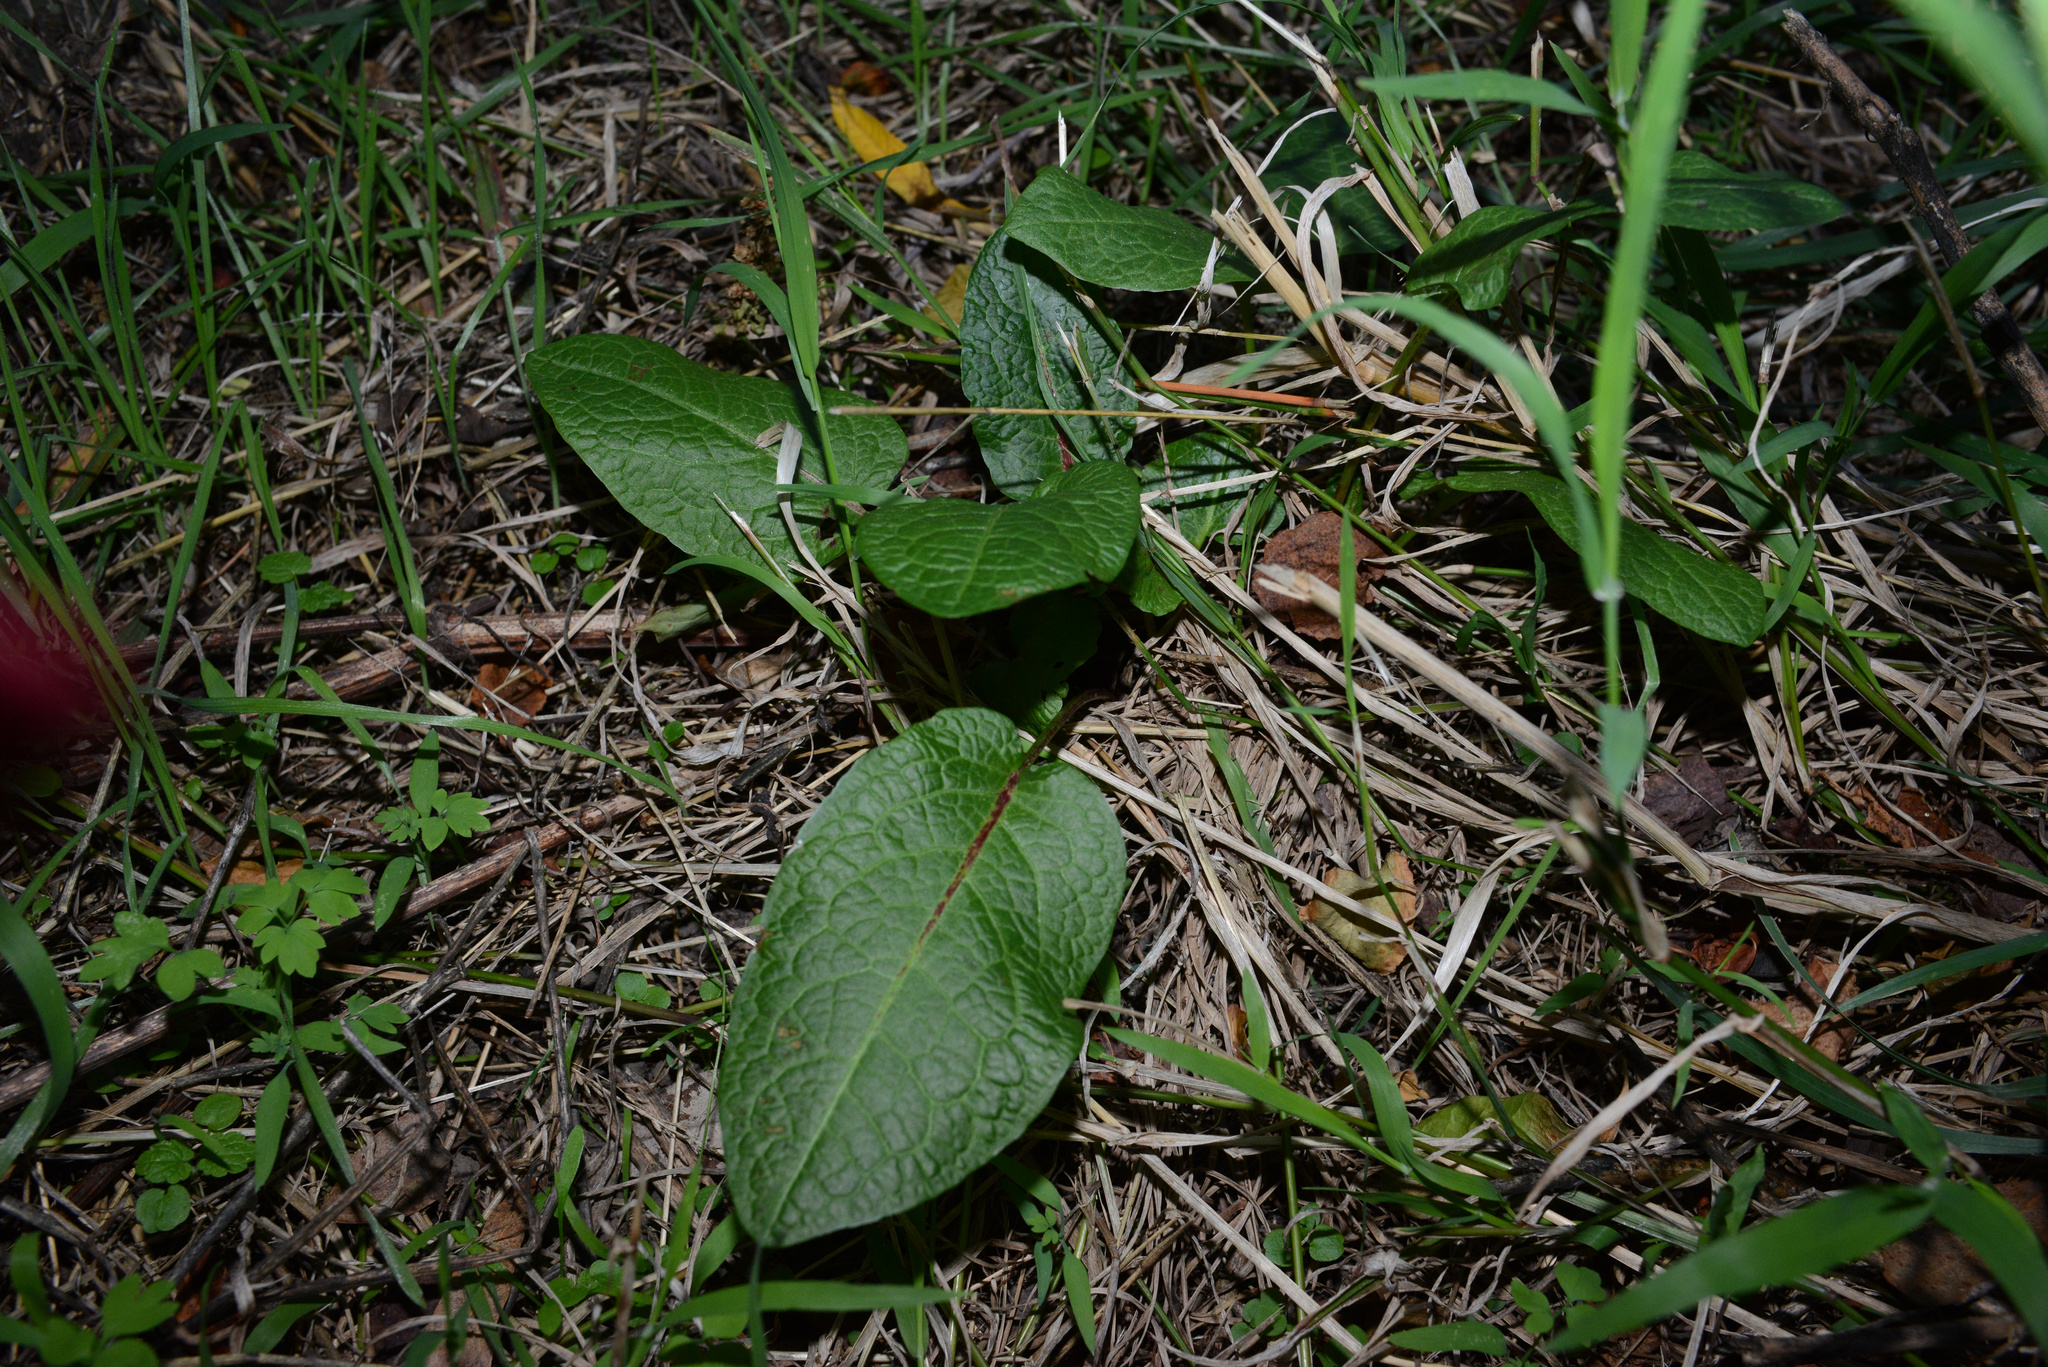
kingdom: Plantae
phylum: Tracheophyta
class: Magnoliopsida
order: Caryophyllales
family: Polygonaceae
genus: Rumex
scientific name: Rumex obtusifolius
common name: Bitter dock
